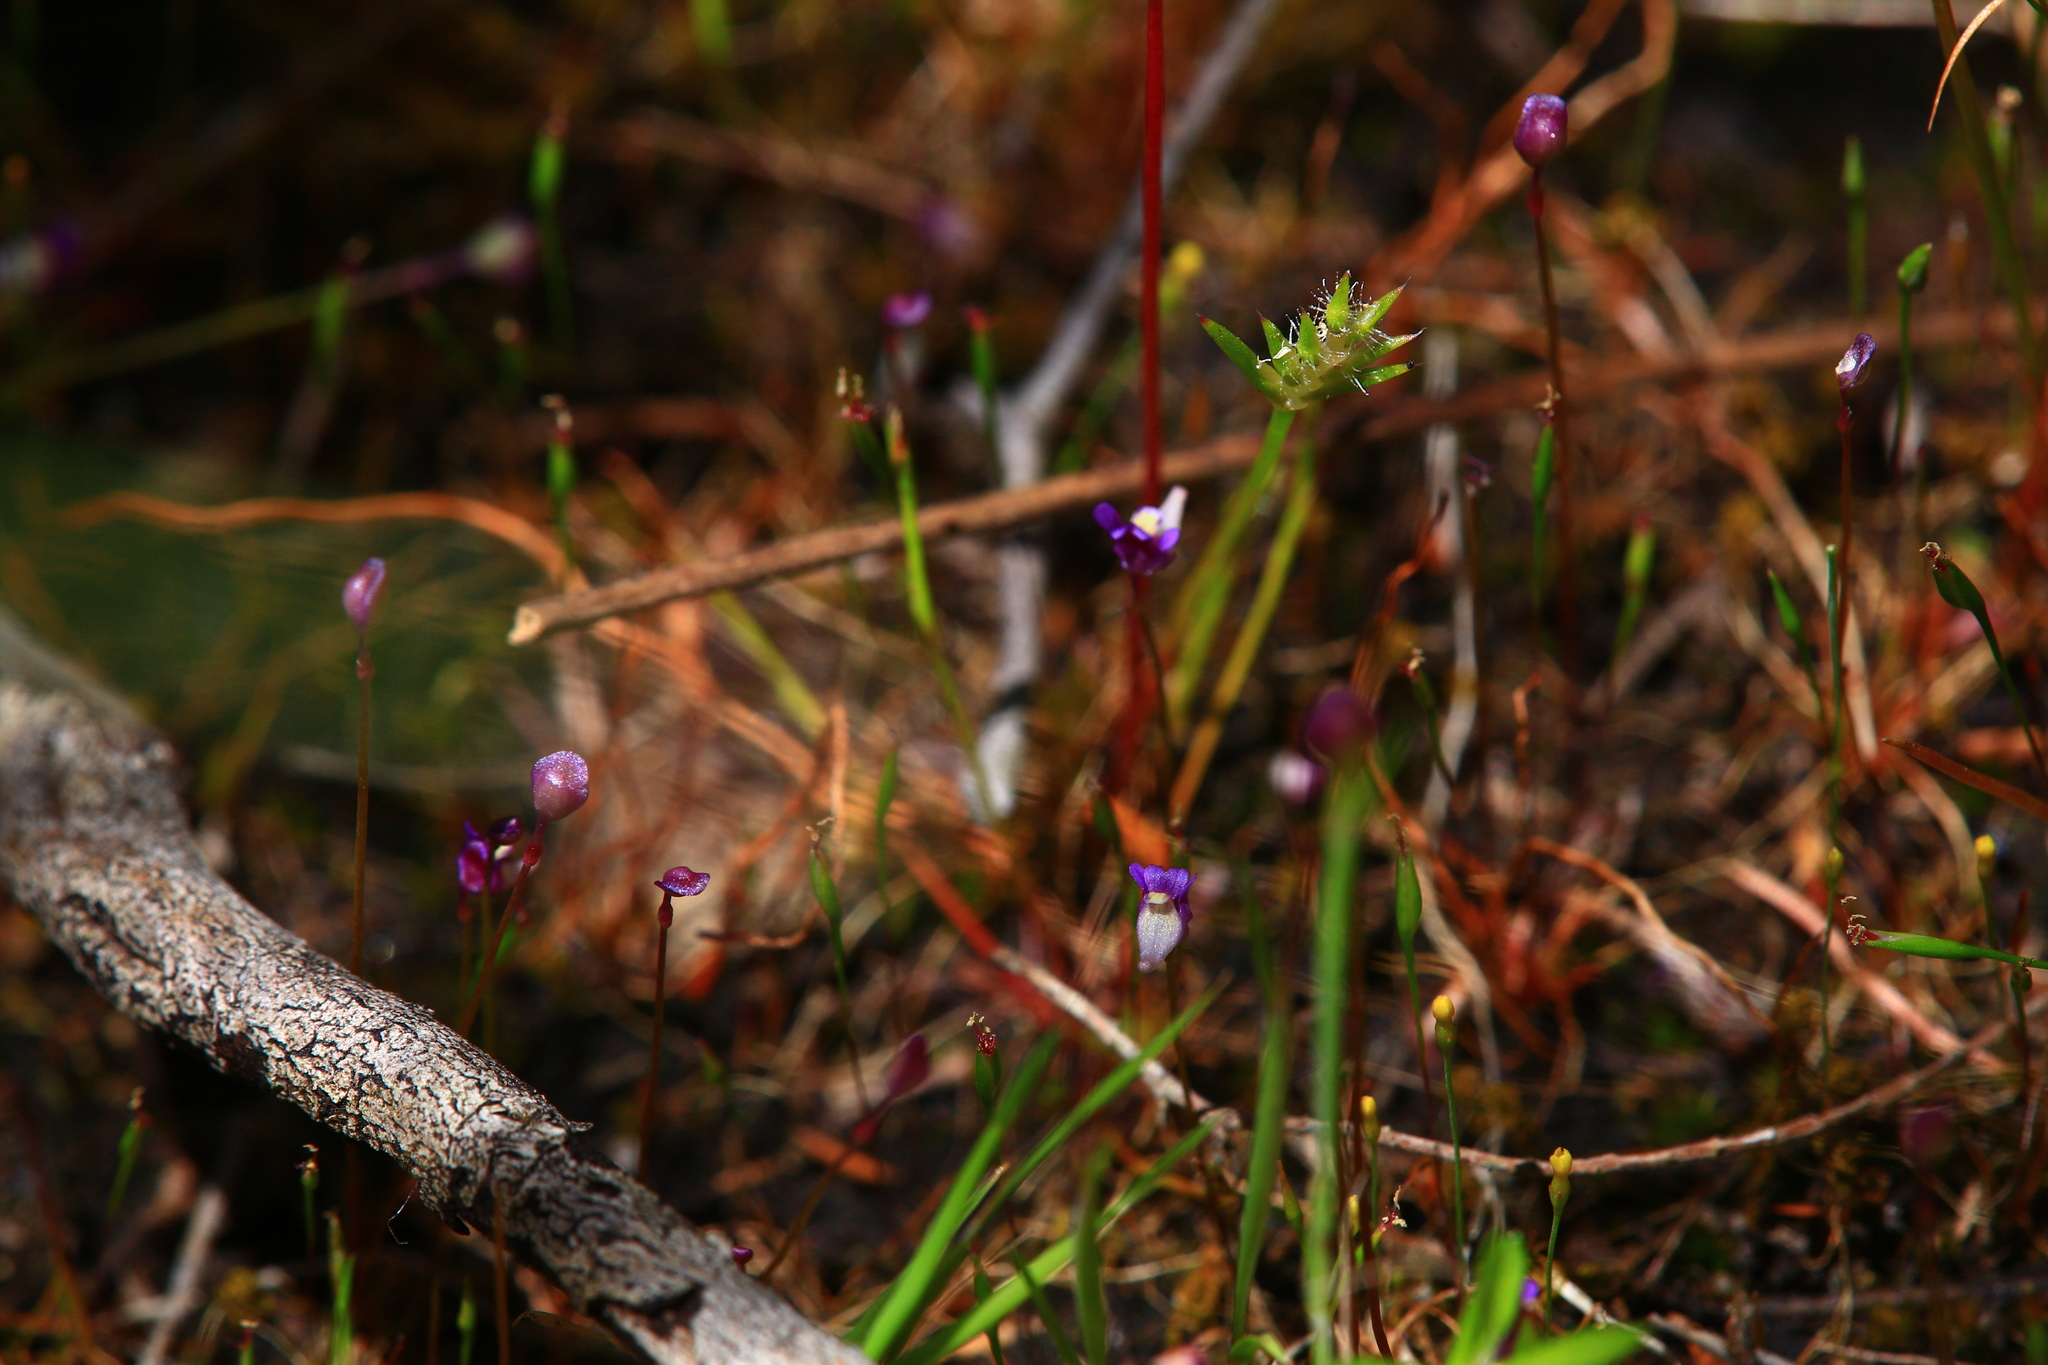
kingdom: Plantae
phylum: Tracheophyta
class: Magnoliopsida
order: Lamiales
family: Lentibulariaceae
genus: Utricularia
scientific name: Utricularia violacea
